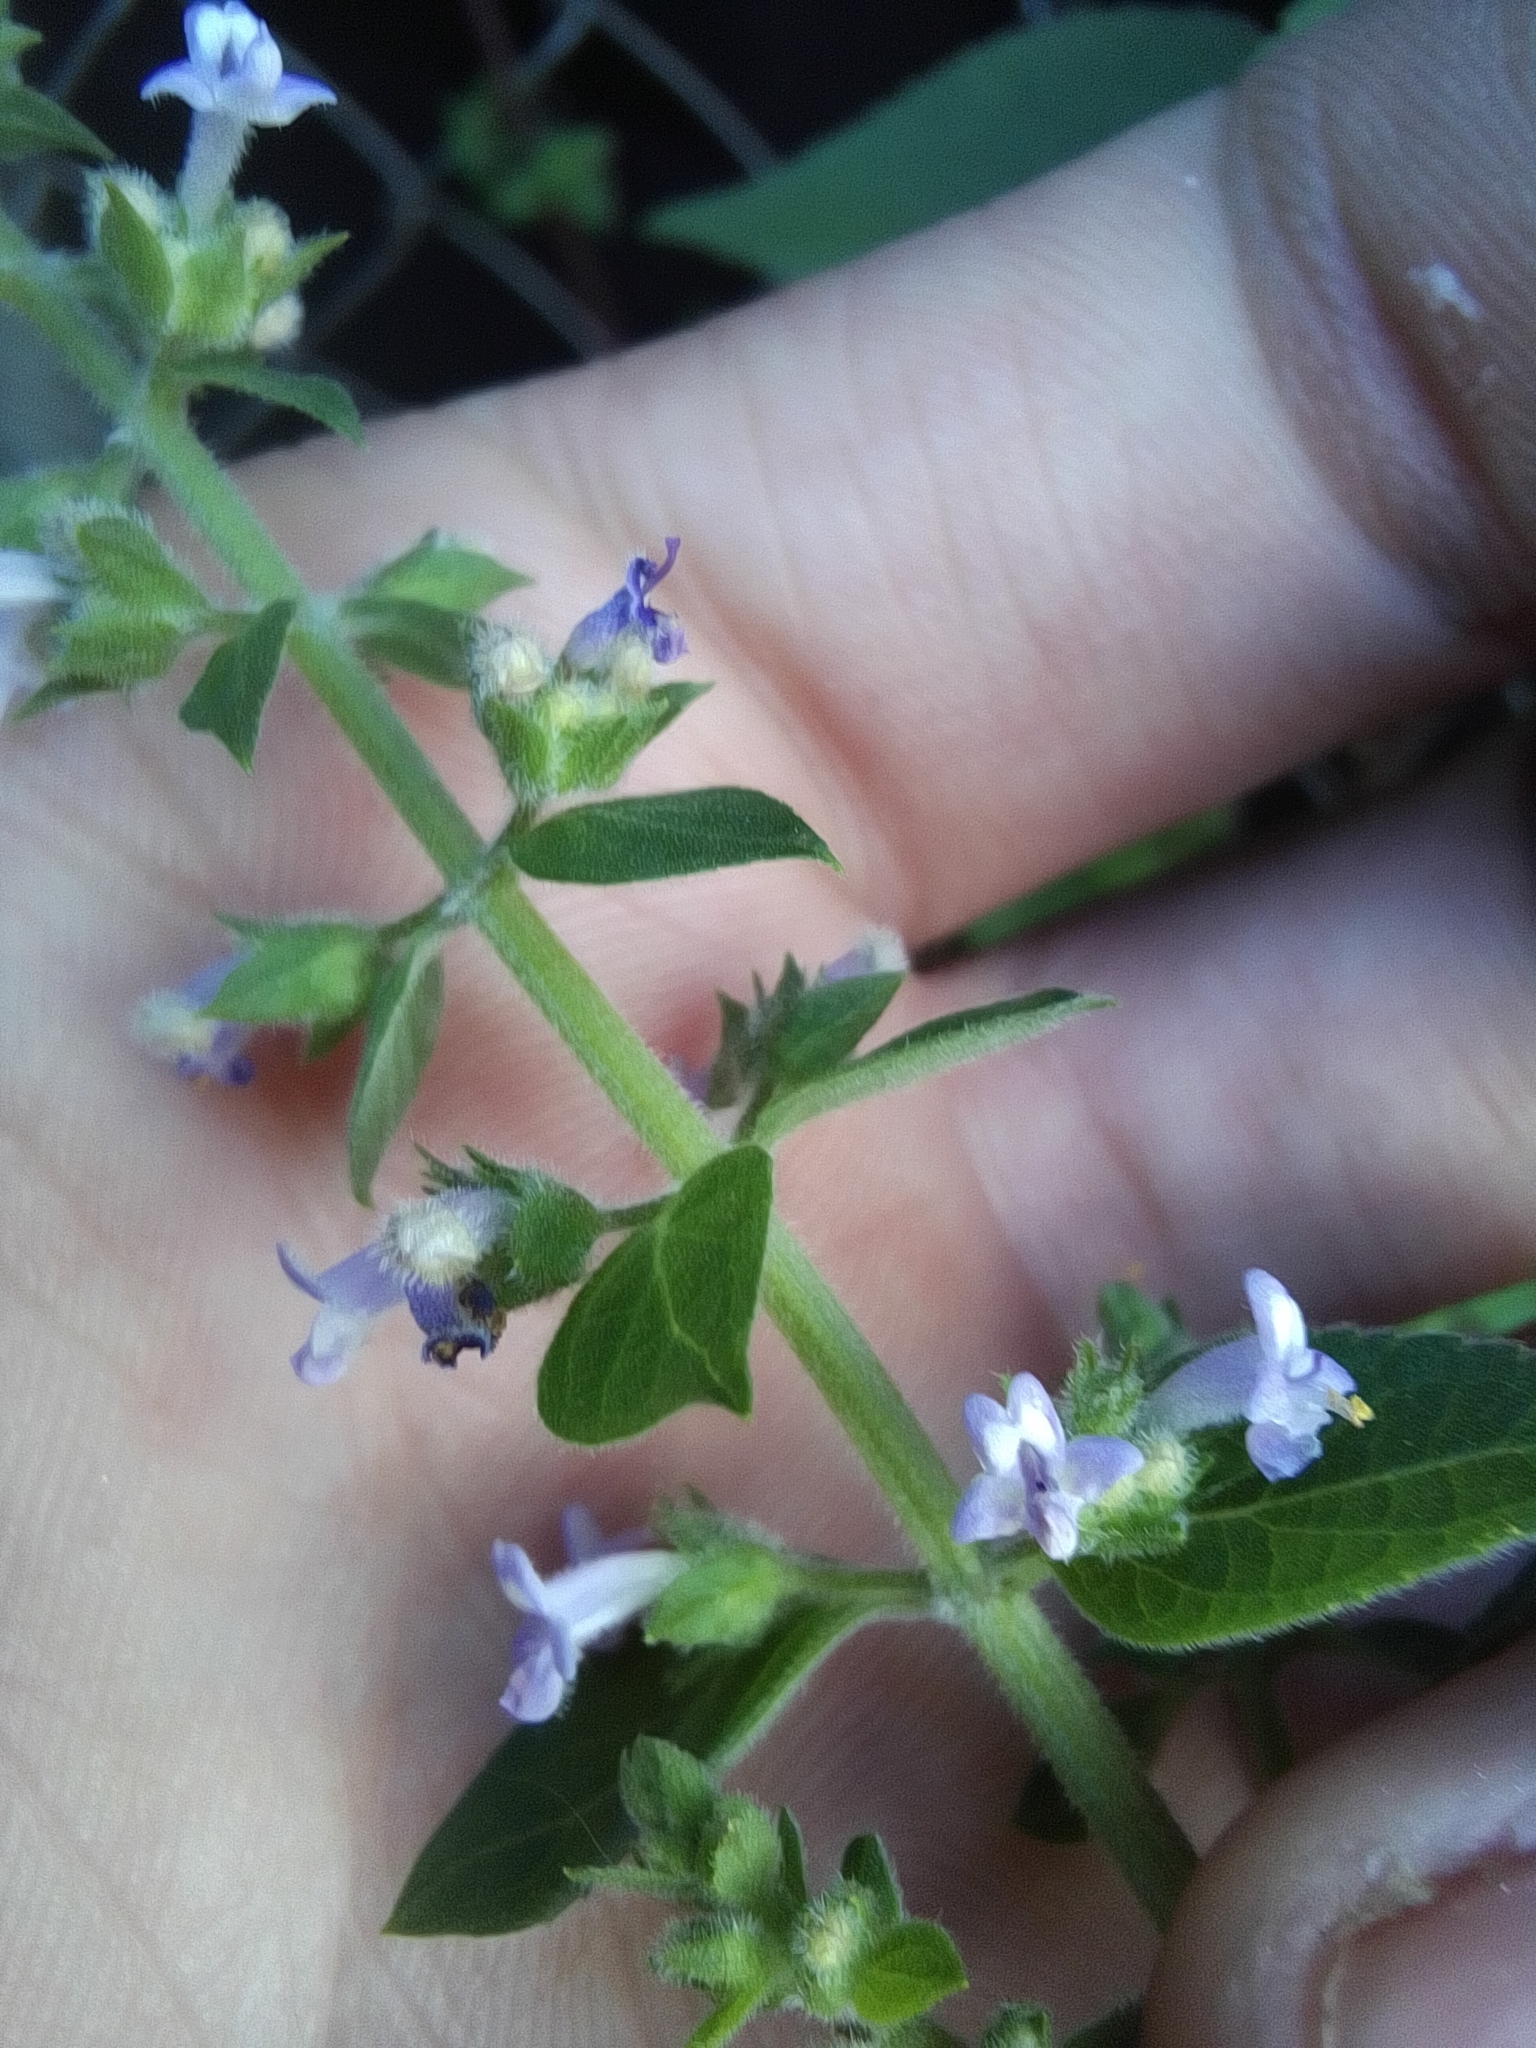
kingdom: Plantae
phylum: Tracheophyta
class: Magnoliopsida
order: Lamiales
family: Lamiaceae
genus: Cantinoa
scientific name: Cantinoa mutabilis
